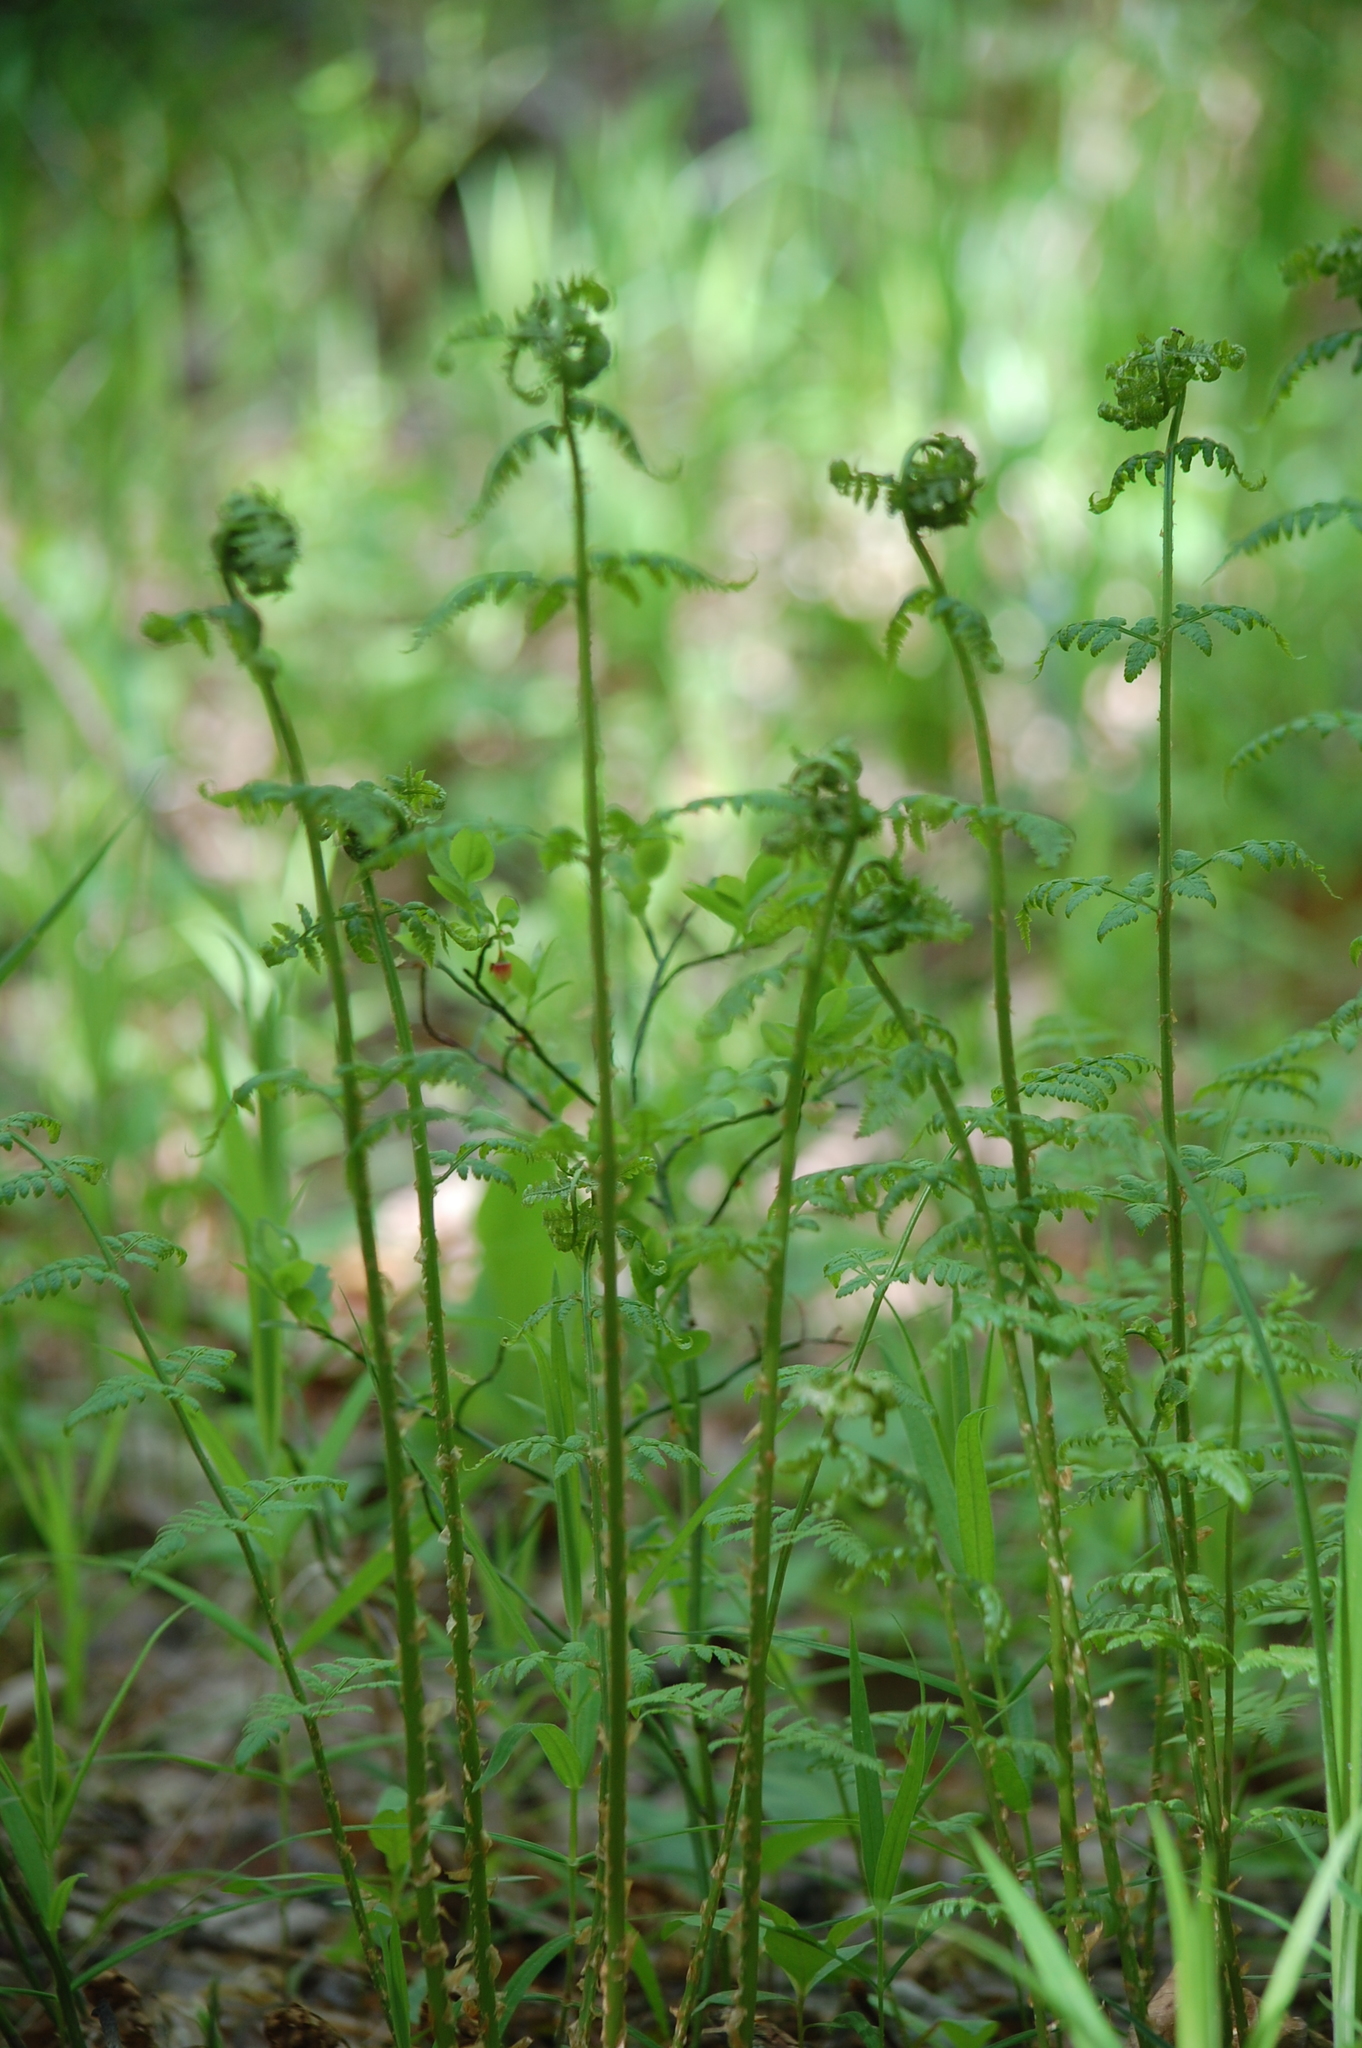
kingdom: Plantae
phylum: Tracheophyta
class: Polypodiopsida
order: Polypodiales
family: Dryopteridaceae
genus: Dryopteris
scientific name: Dryopteris carthusiana
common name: Narrow buckler-fern
